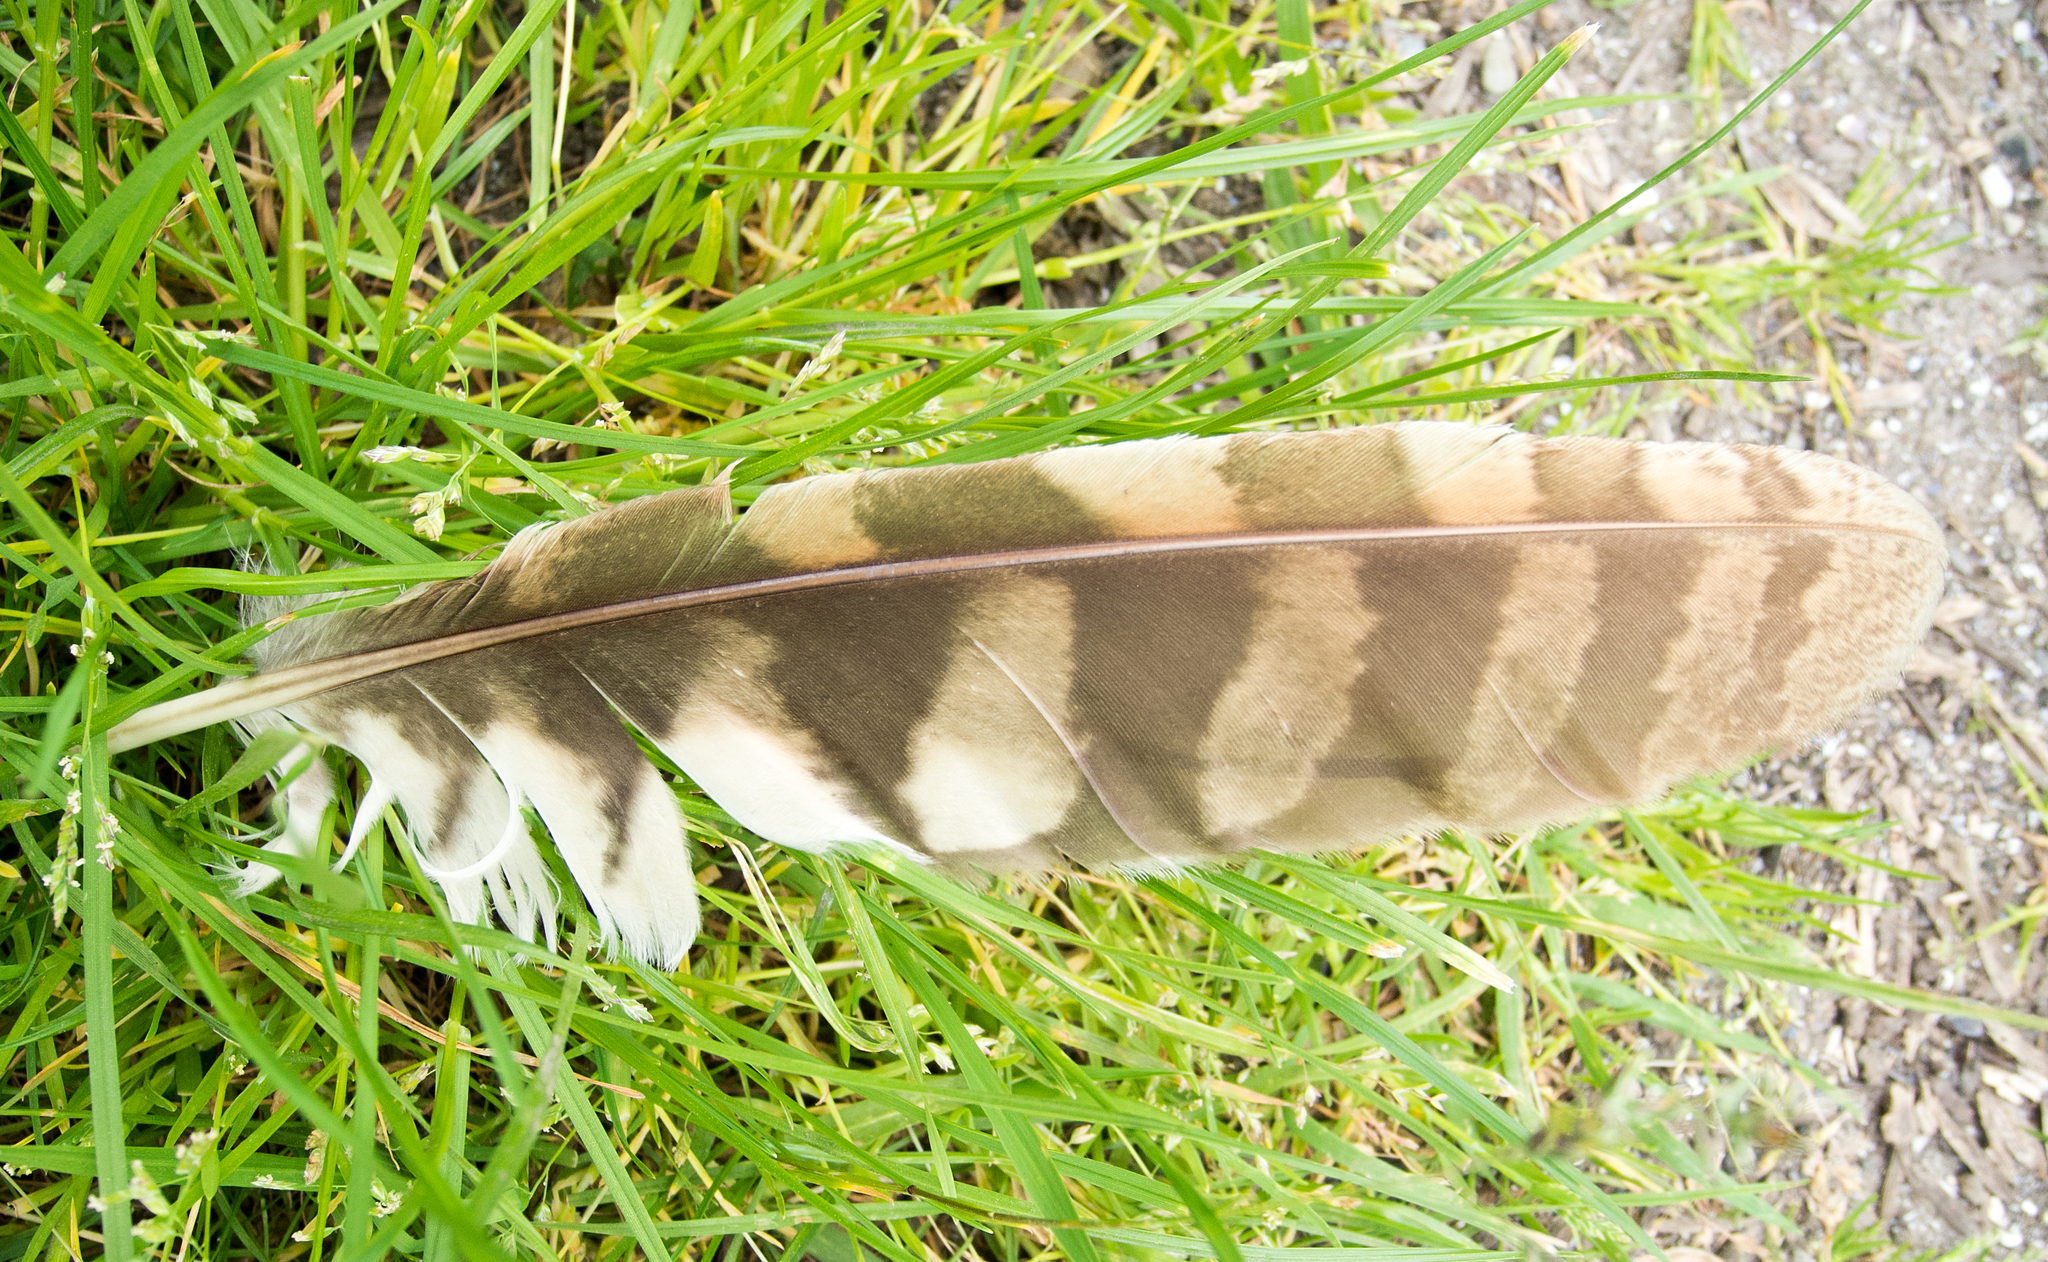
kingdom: Animalia
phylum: Chordata
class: Aves
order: Strigiformes
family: Strigidae
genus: Strix
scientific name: Strix aluco
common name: Tawny owl
